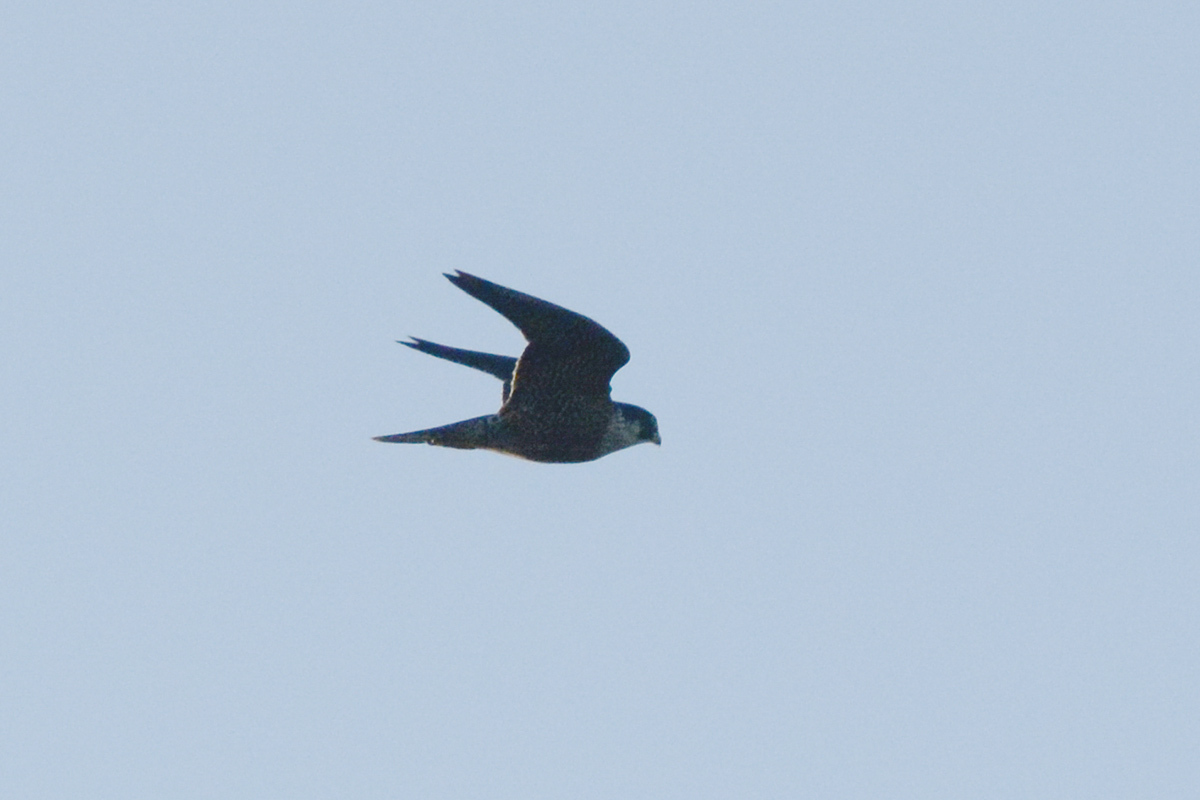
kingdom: Animalia
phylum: Chordata
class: Aves
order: Falconiformes
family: Falconidae
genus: Falco
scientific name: Falco peregrinus
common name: Peregrine falcon
